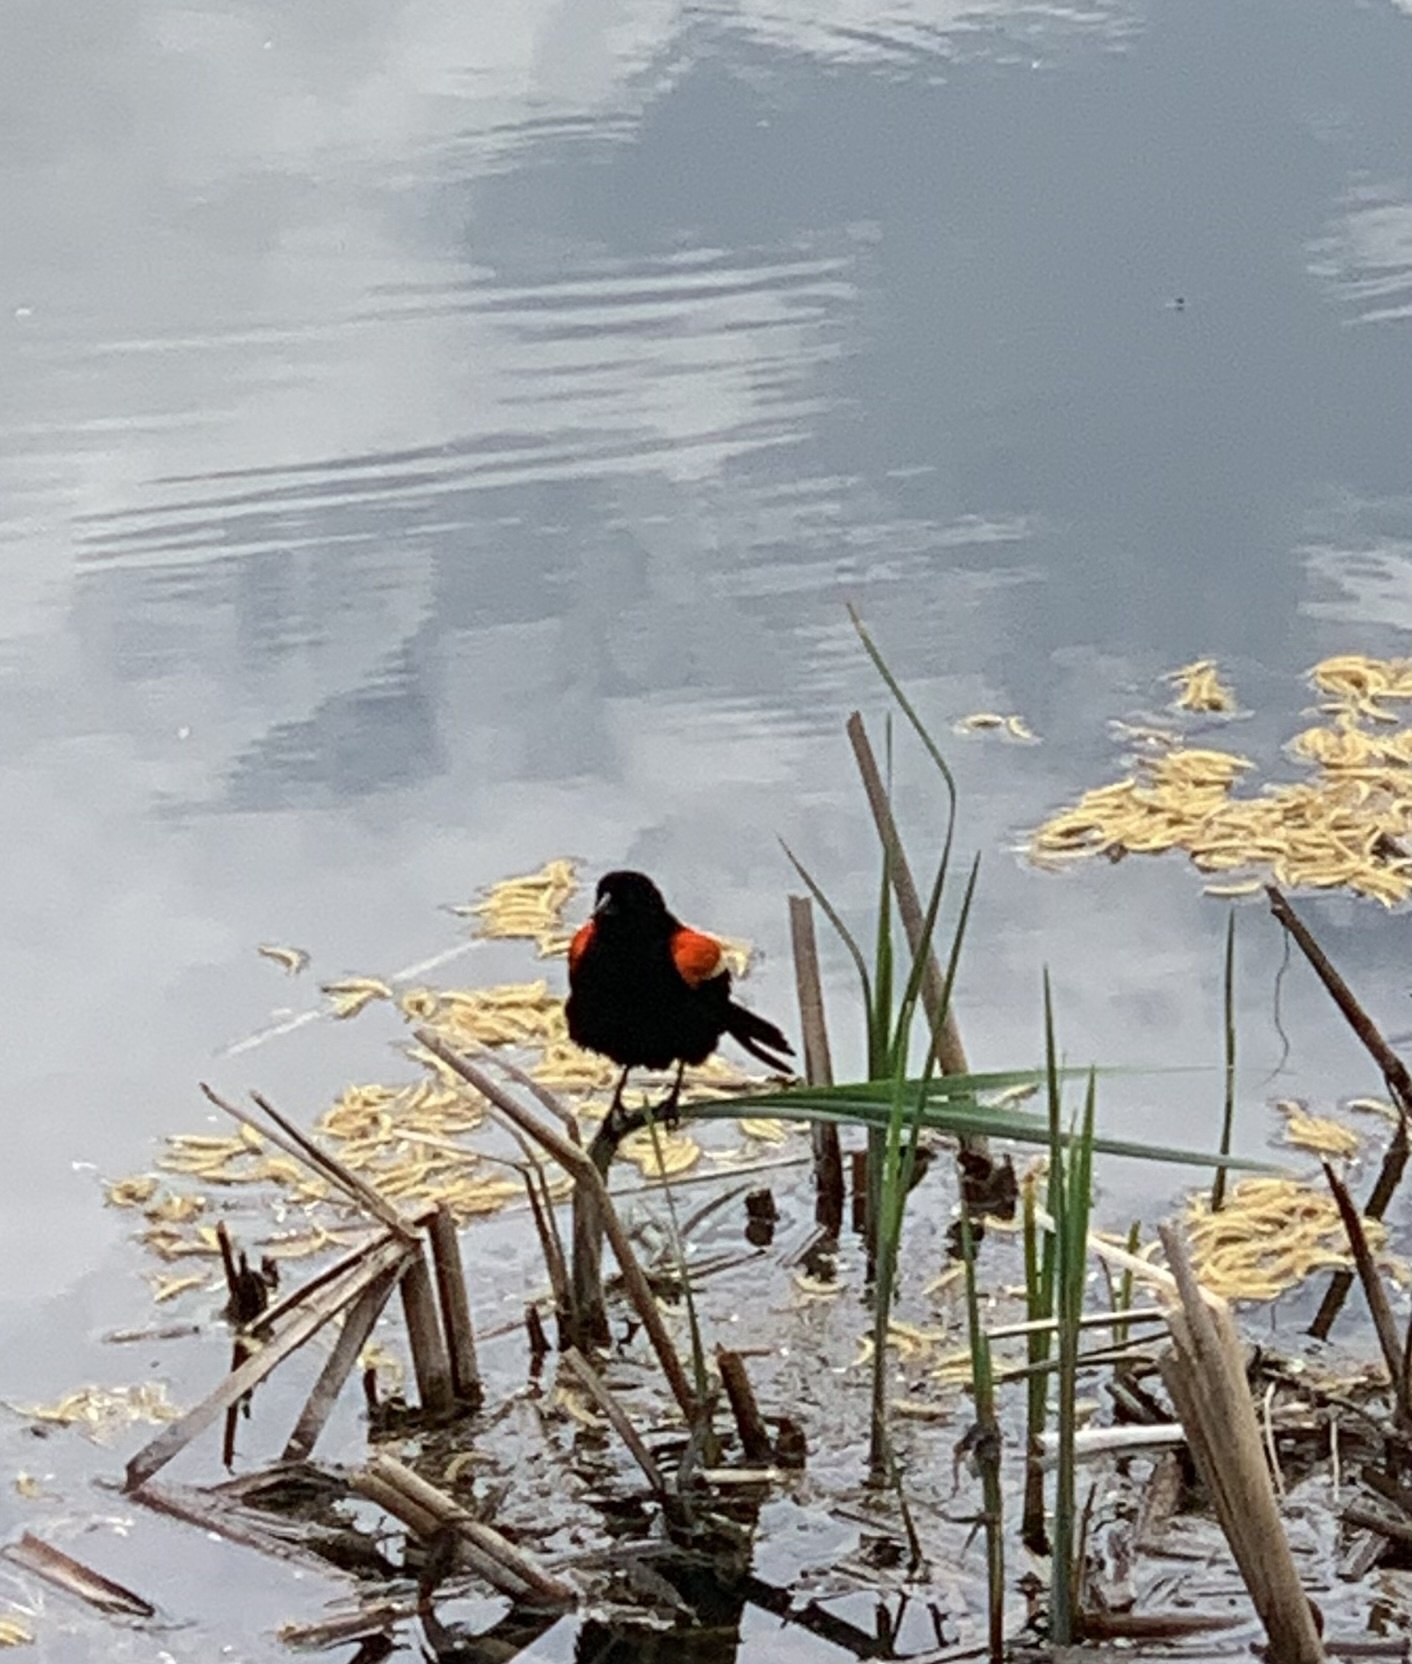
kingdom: Animalia
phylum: Chordata
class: Aves
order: Passeriformes
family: Icteridae
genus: Agelaius
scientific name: Agelaius phoeniceus
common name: Red-winged blackbird
